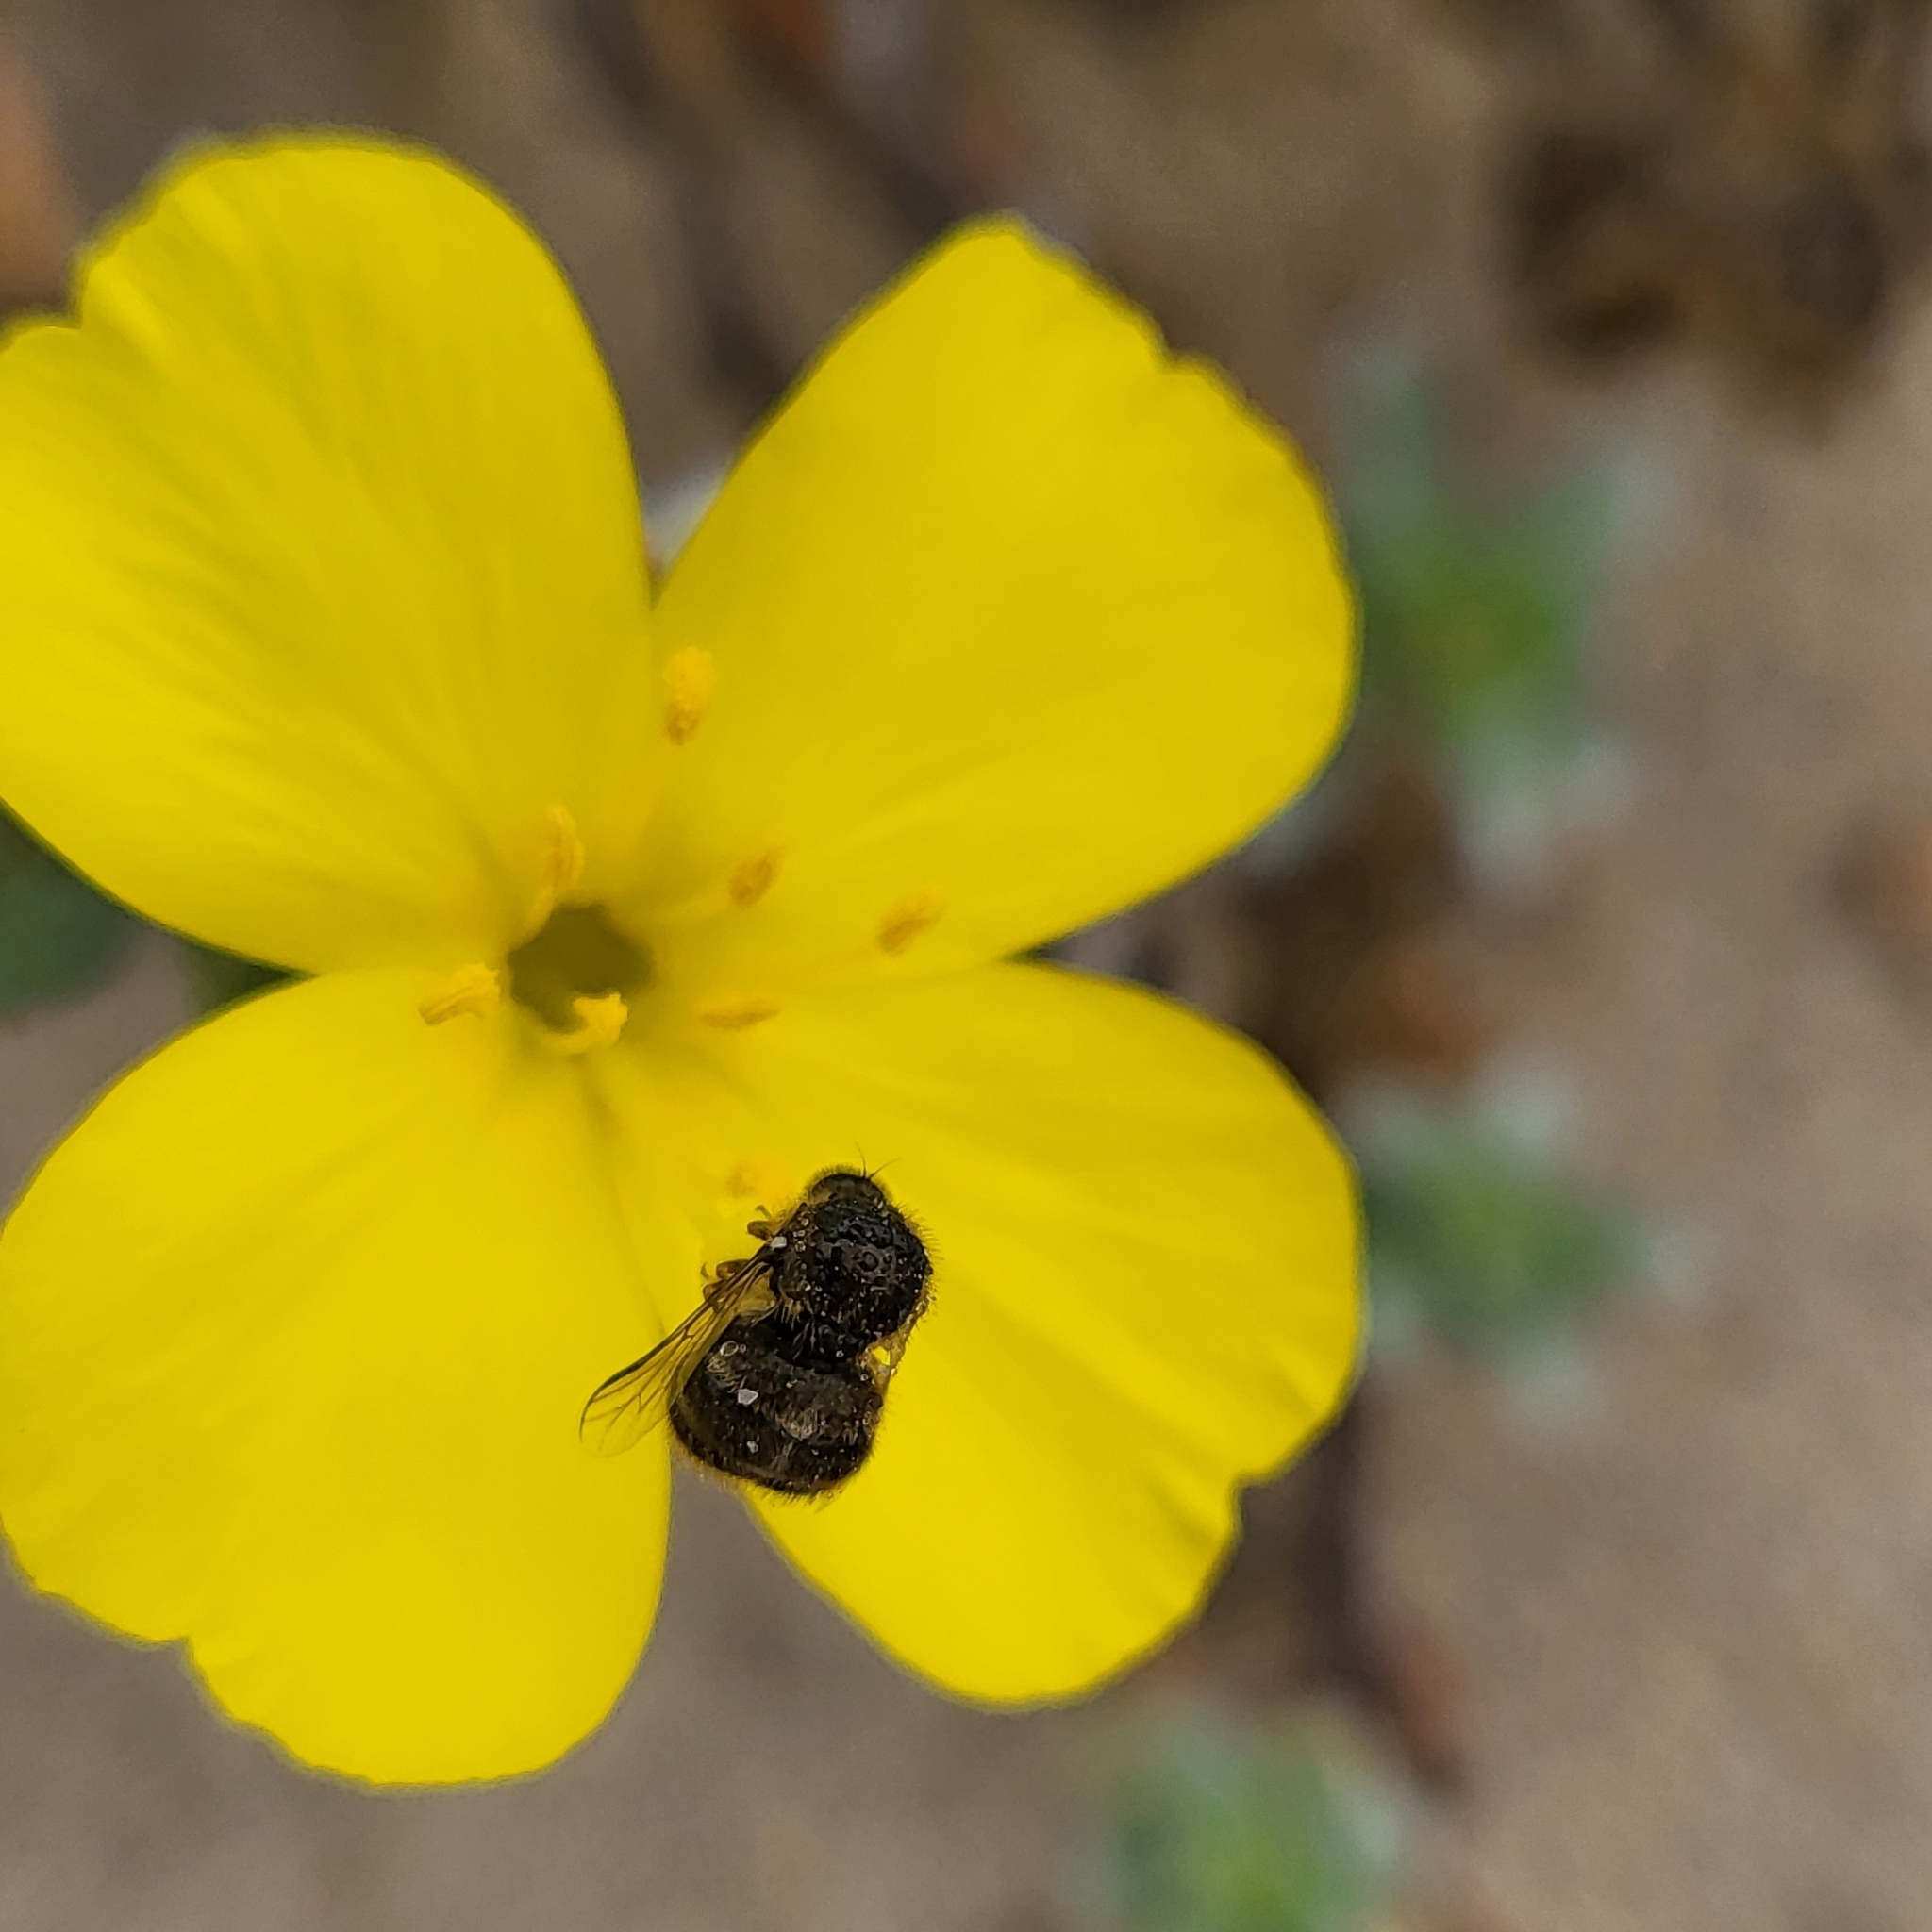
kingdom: Animalia
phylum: Arthropoda
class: Insecta
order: Diptera
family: Acroceridae
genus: Turbopsebius
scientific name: Turbopsebius diligens
